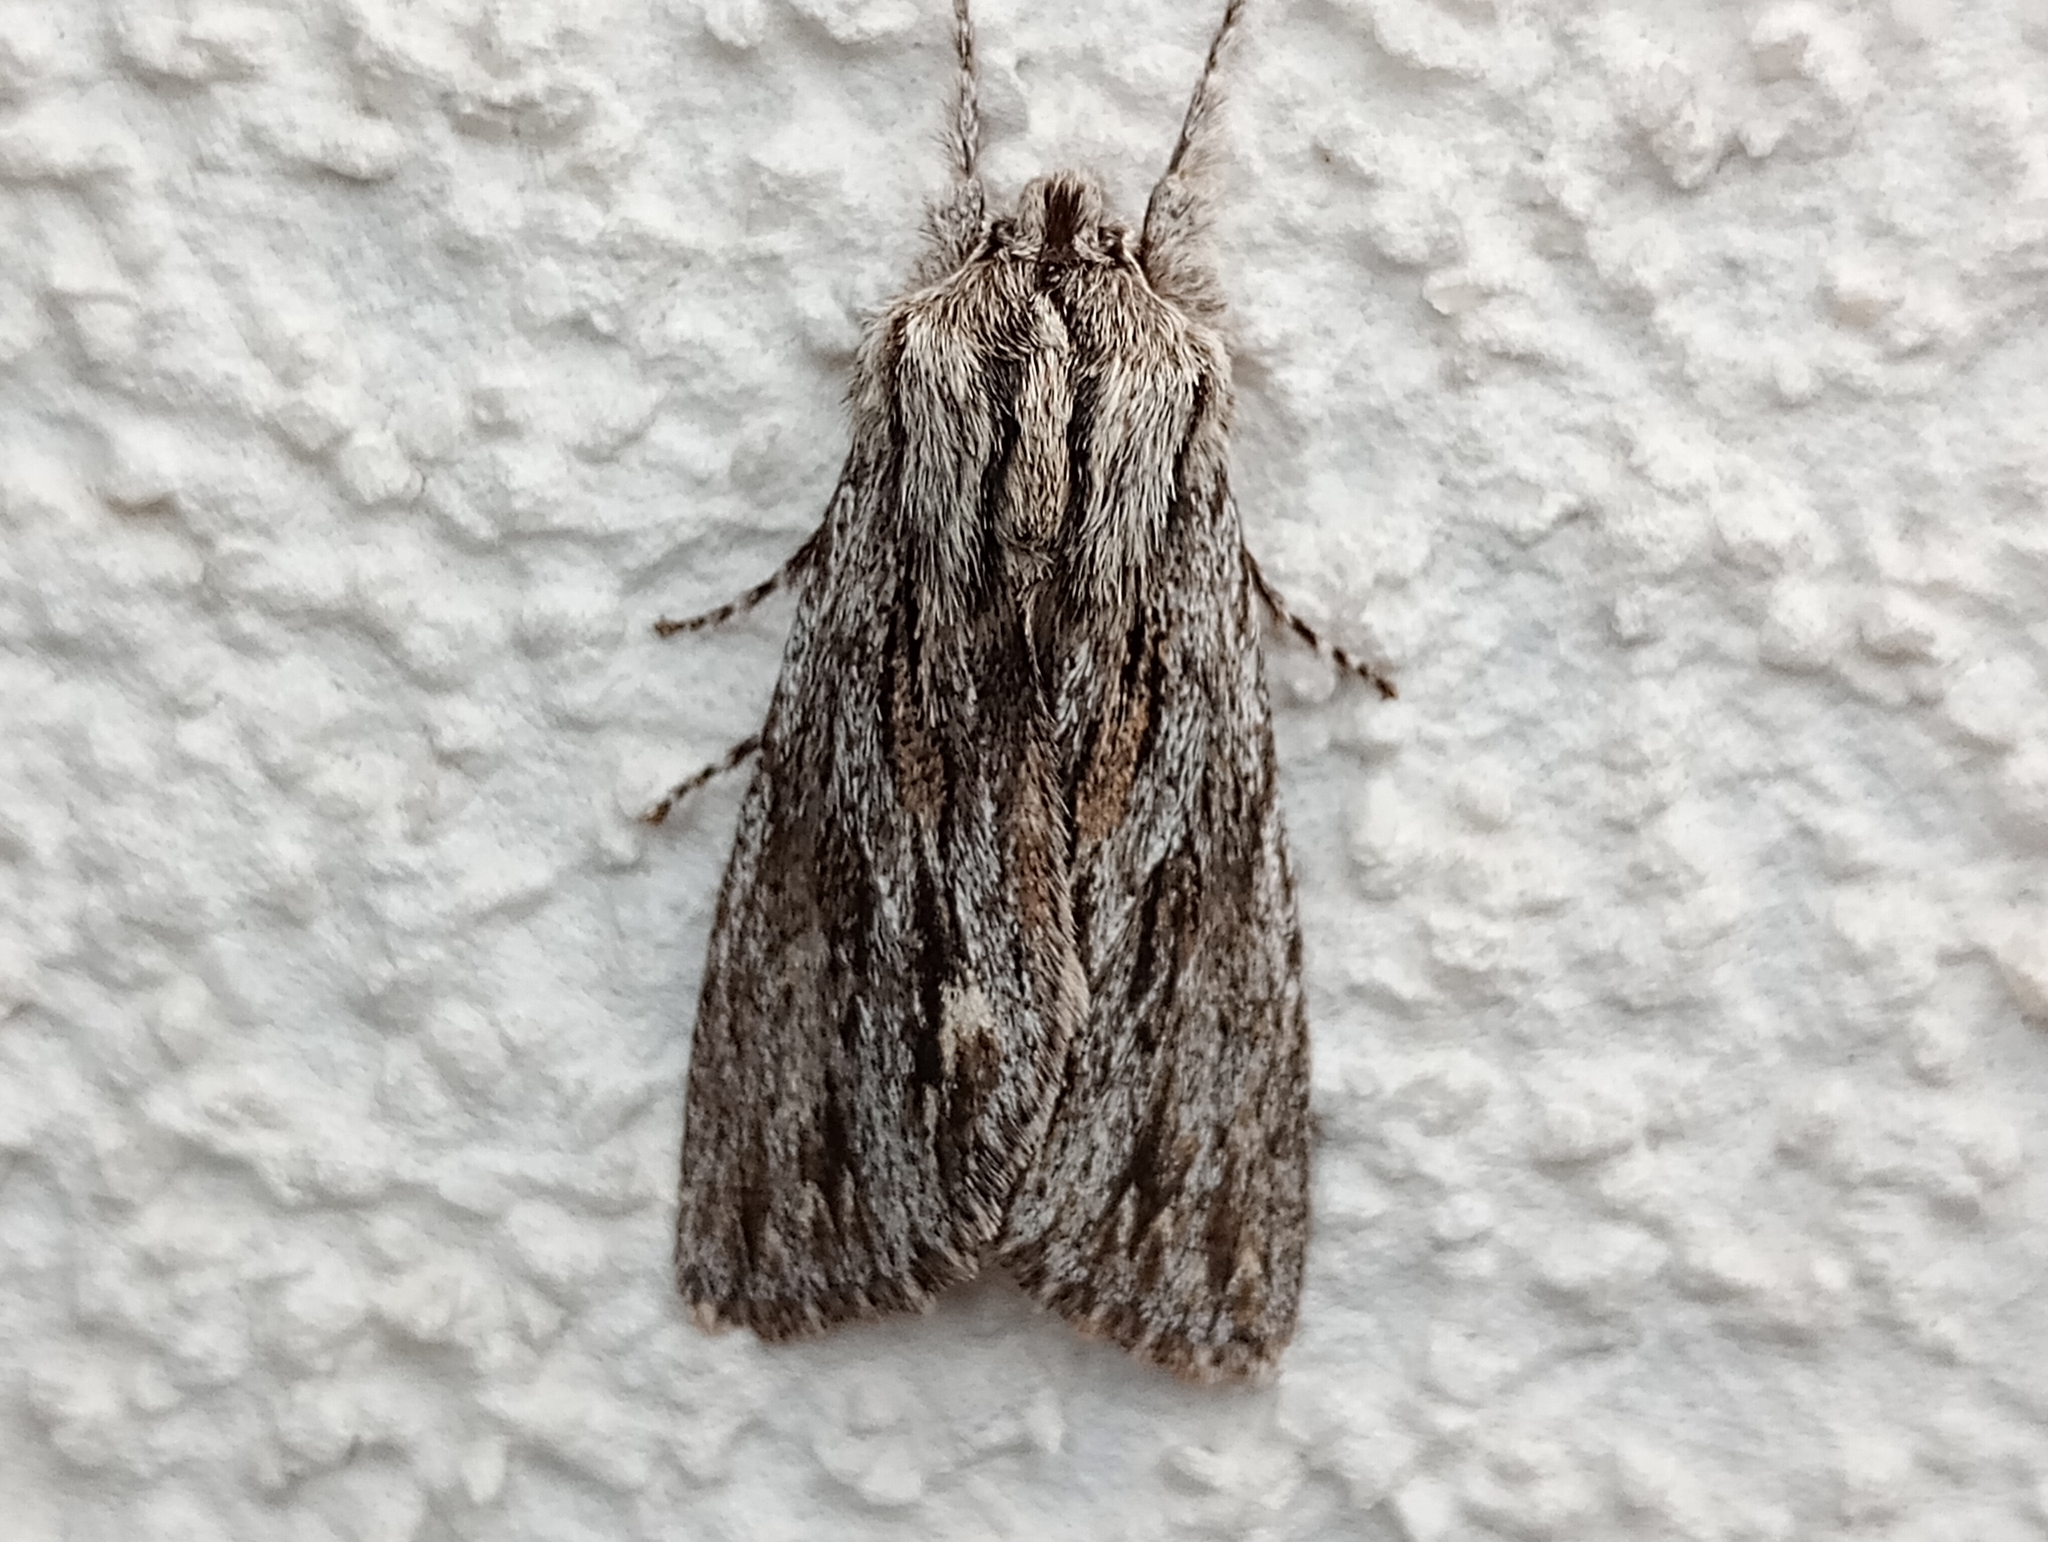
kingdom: Animalia
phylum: Arthropoda
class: Insecta
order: Lepidoptera
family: Noctuidae
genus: Asteroscopus
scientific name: Asteroscopus sphinx
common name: The sprawler
